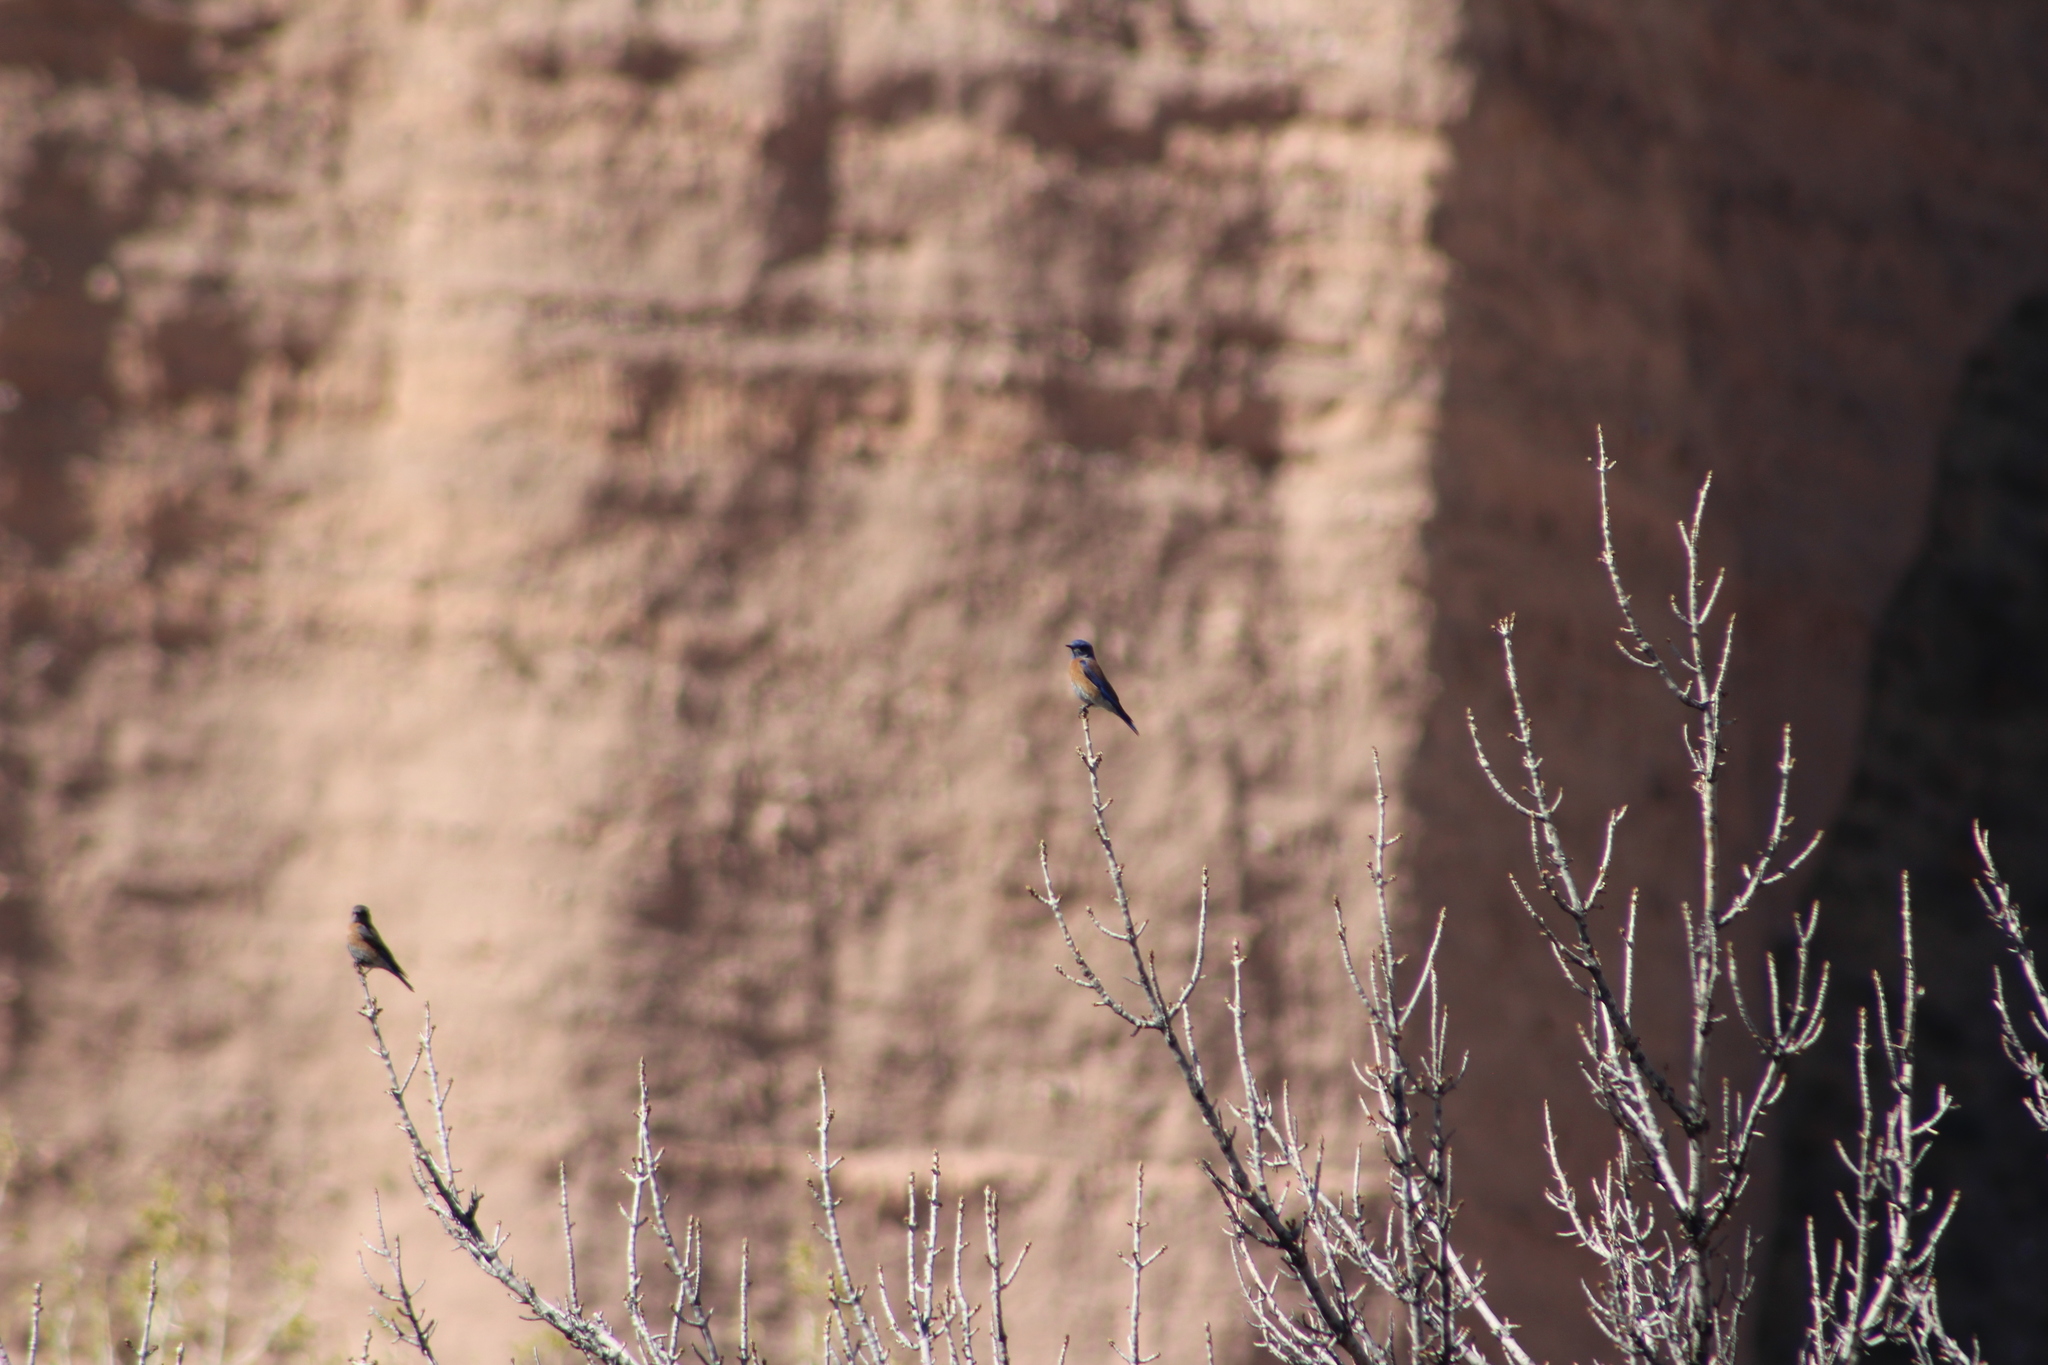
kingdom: Animalia
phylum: Chordata
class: Aves
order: Passeriformes
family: Turdidae
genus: Sialia
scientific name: Sialia mexicana
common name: Western bluebird
